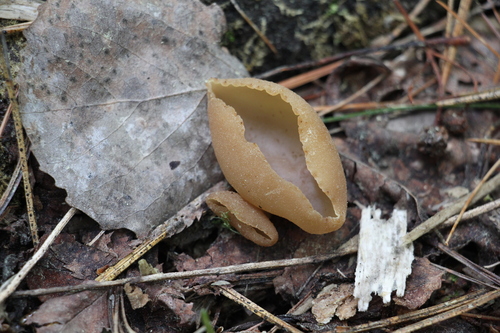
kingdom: Fungi
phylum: Ascomycota
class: Pezizomycetes
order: Pezizales
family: Pezizaceae
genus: Peziza
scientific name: Peziza varia
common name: Layered cup
